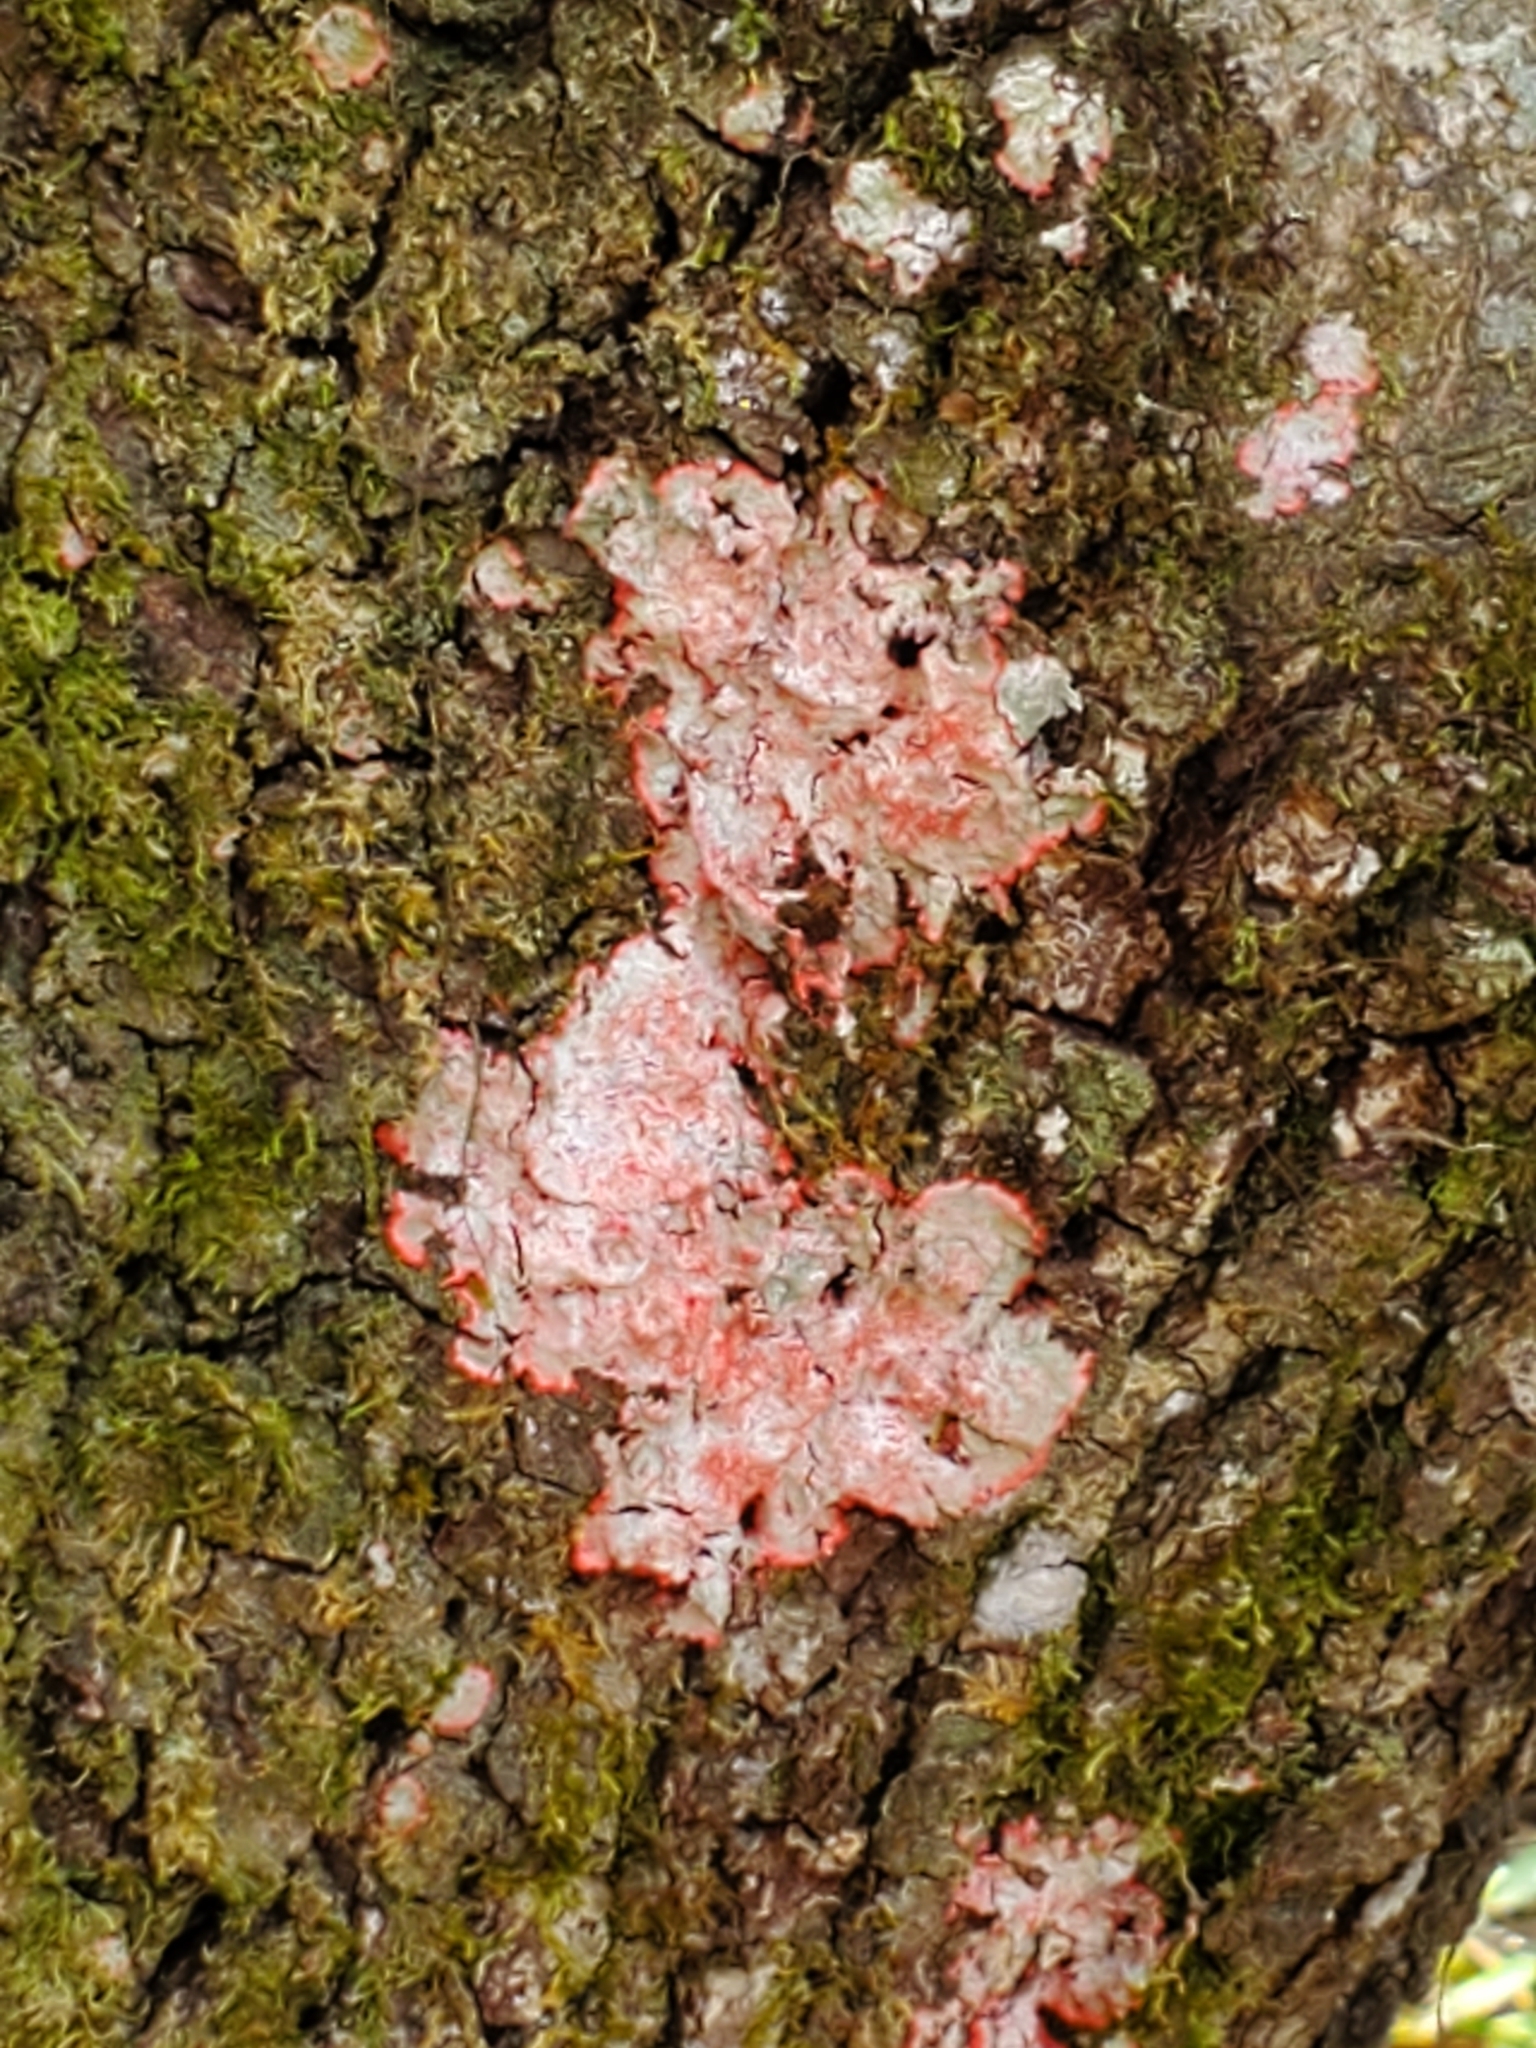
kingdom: Fungi
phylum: Ascomycota
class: Arthoniomycetes
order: Arthoniales
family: Arthoniaceae
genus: Herpothallon
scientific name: Herpothallon rubrocinctum
